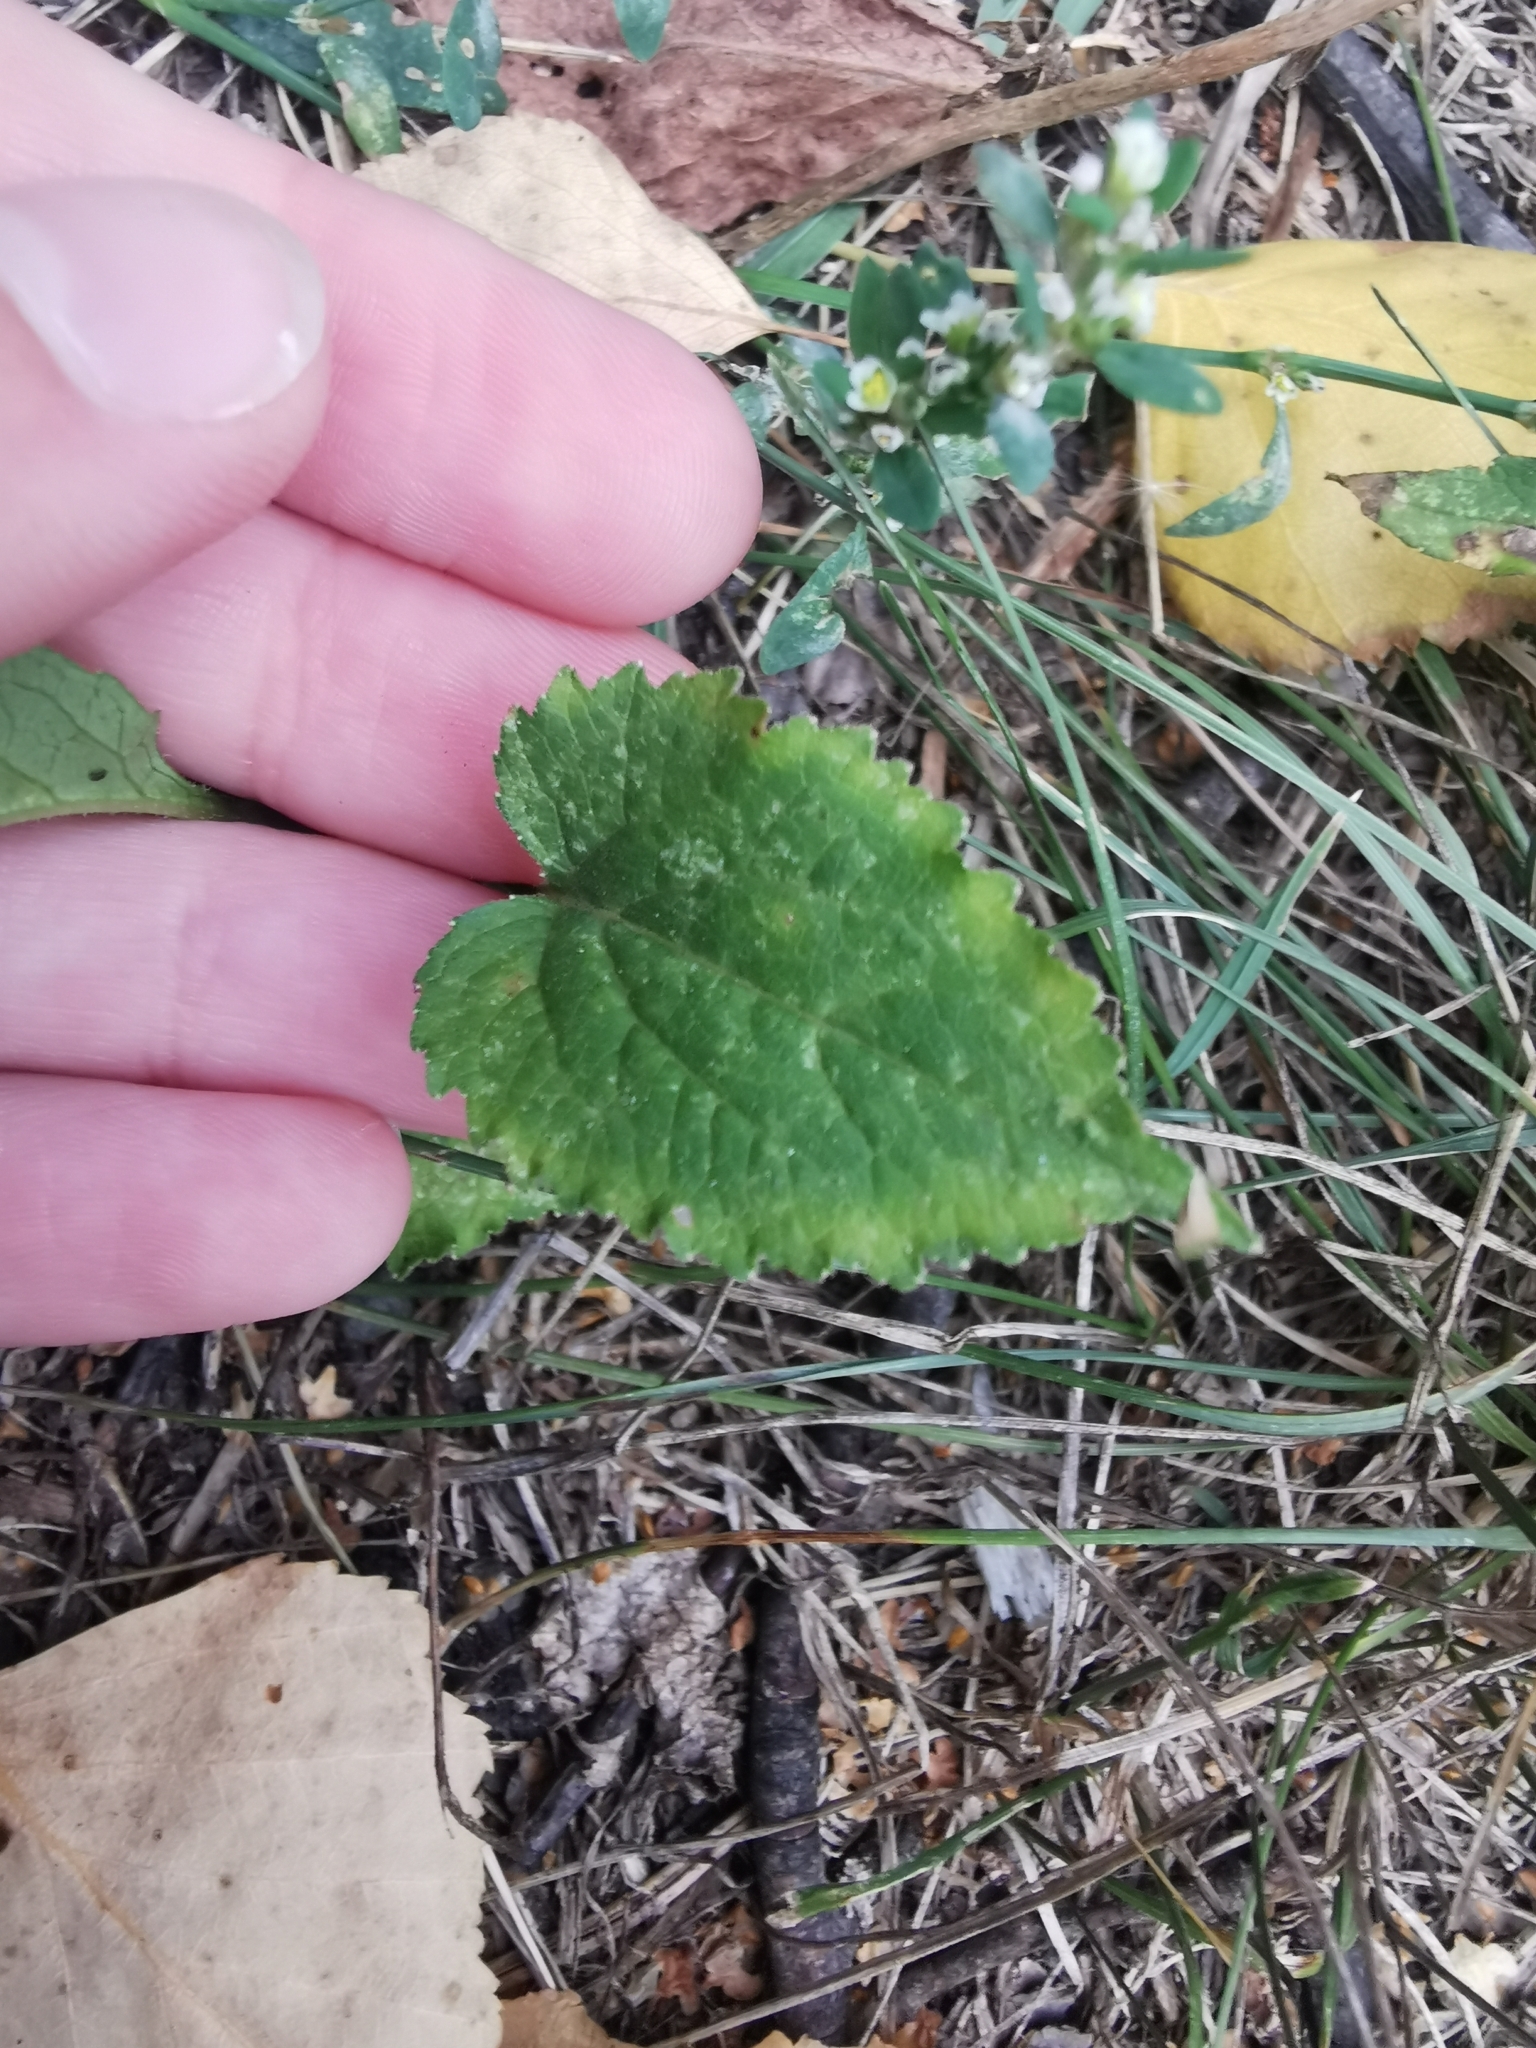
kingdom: Plantae
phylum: Tracheophyta
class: Magnoliopsida
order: Asterales
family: Campanulaceae
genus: Campanula
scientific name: Campanula rapunculoides
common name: Creeping bellflower
